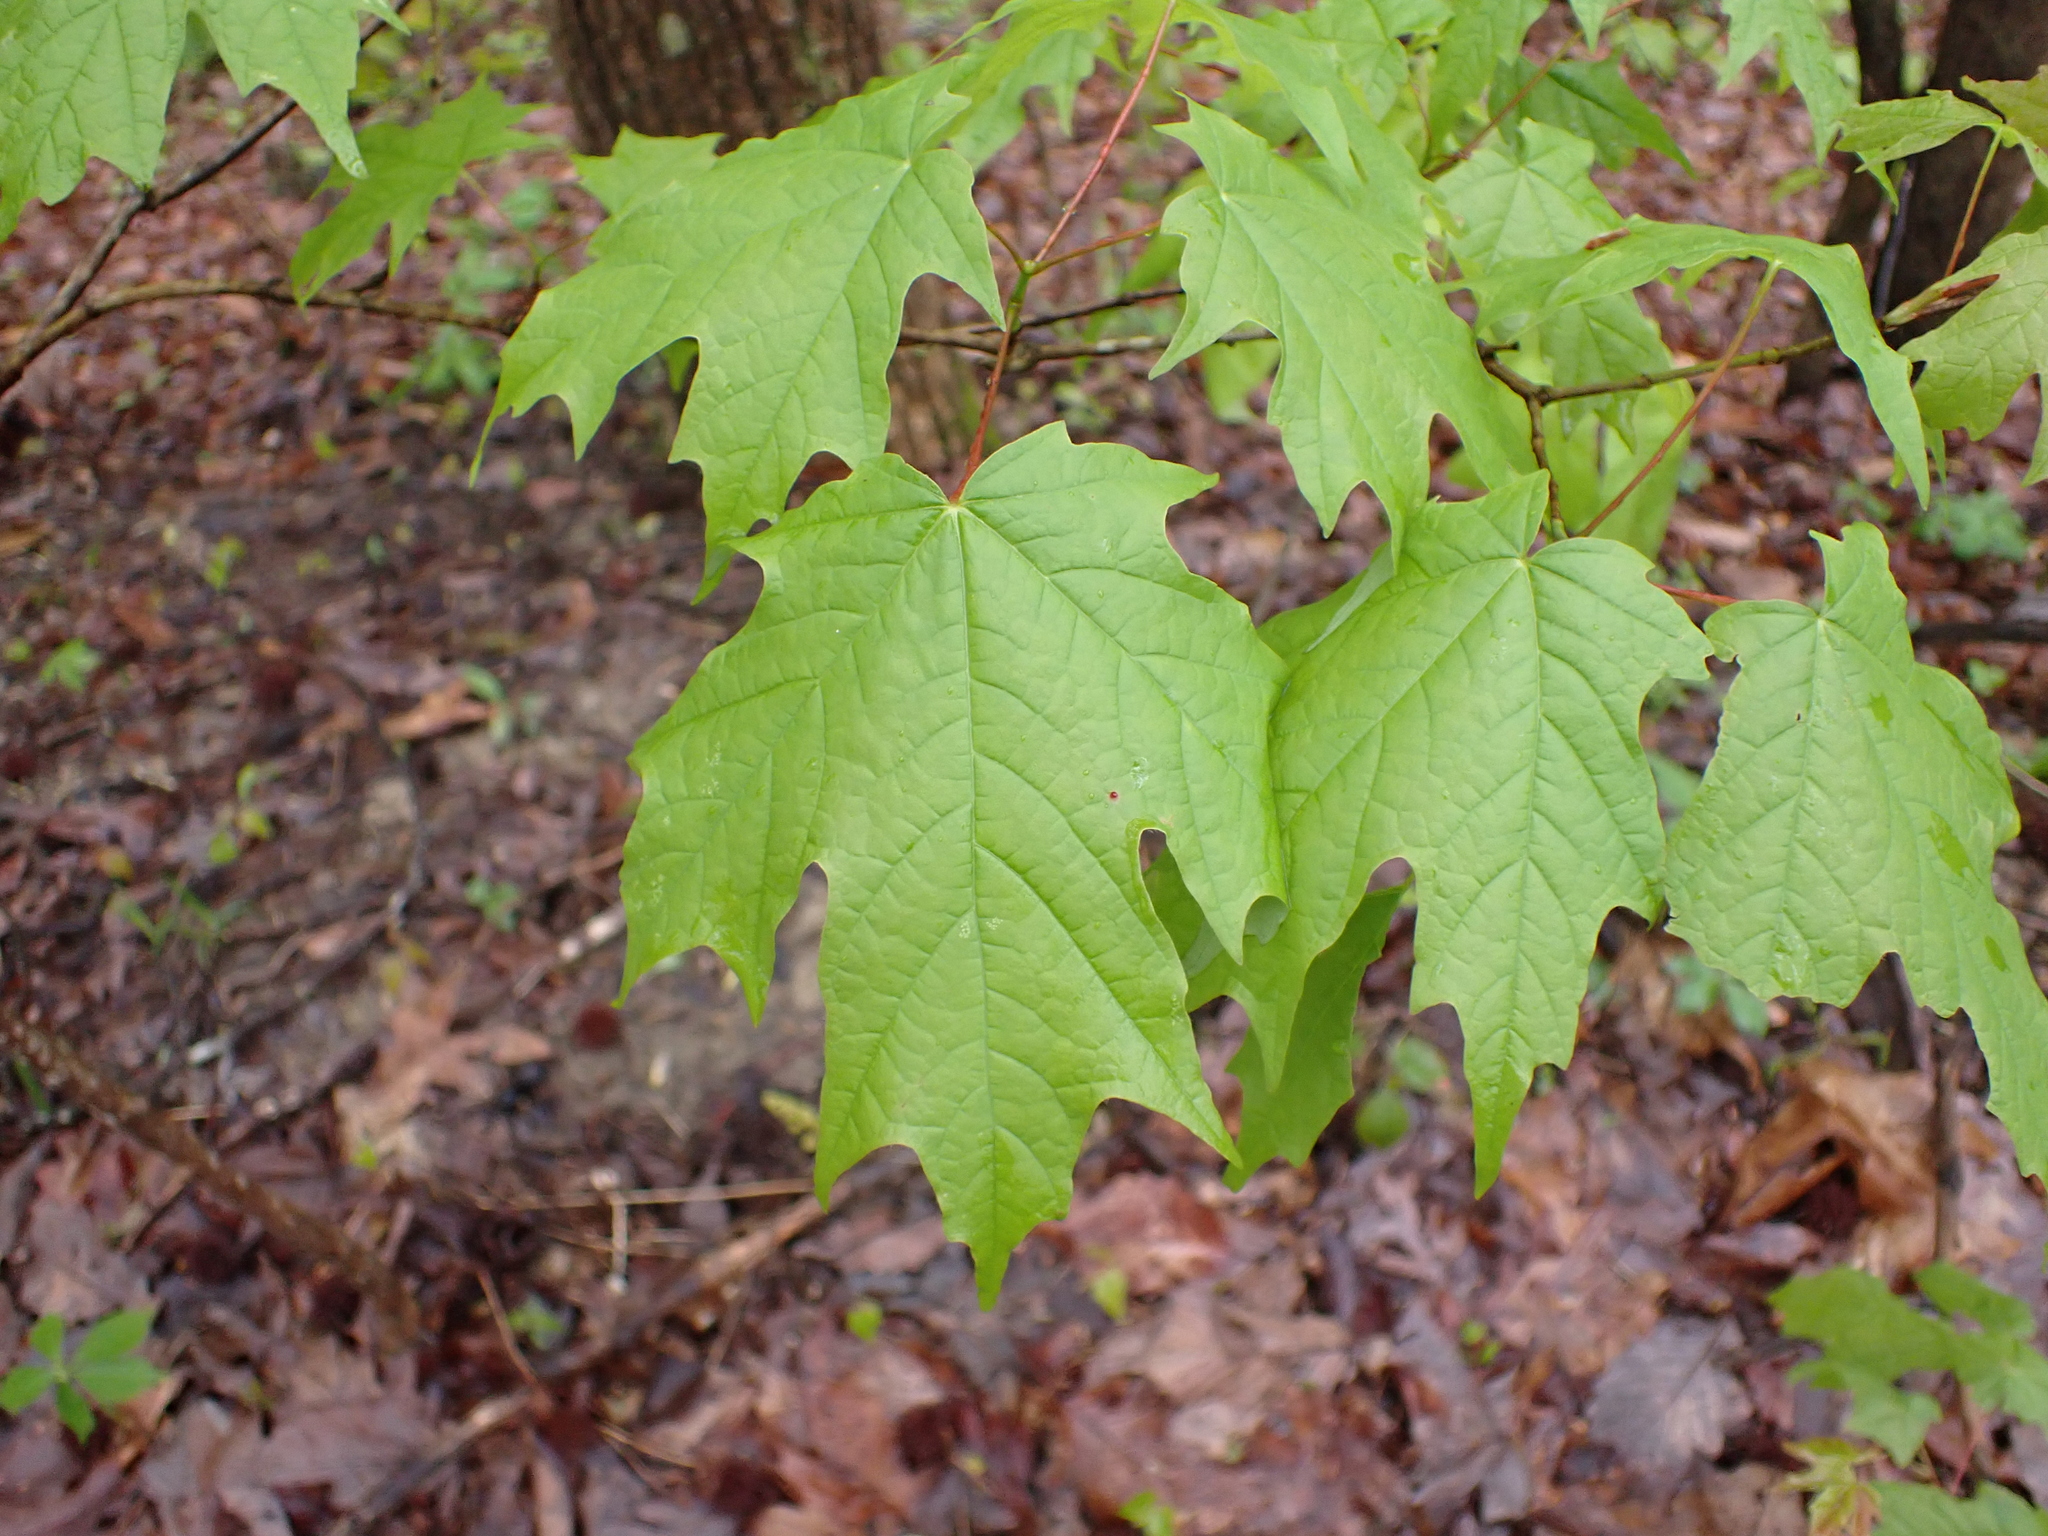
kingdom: Plantae
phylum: Tracheophyta
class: Magnoliopsida
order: Sapindales
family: Sapindaceae
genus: Acer
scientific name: Acer saccharum
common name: Sugar maple
